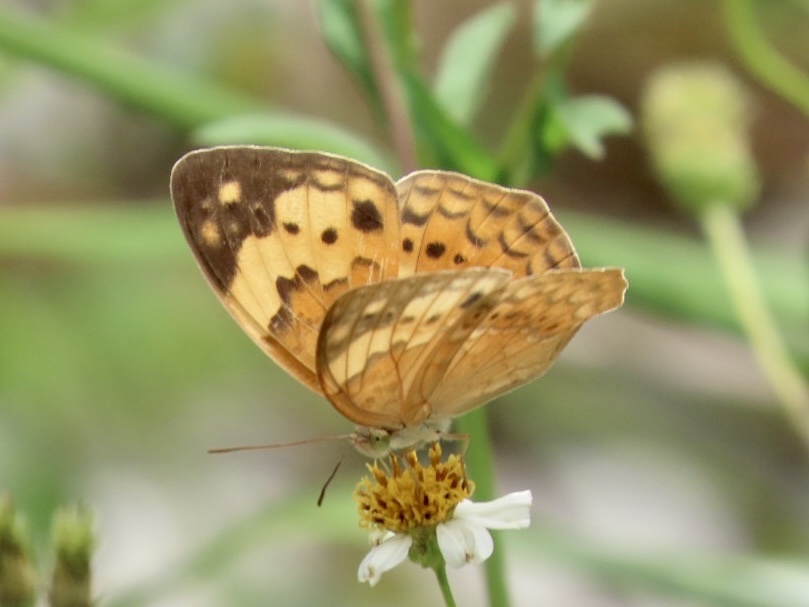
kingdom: Animalia
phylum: Arthropoda
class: Insecta
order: Lepidoptera
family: Nymphalidae
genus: Cupha
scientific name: Cupha erymanthis
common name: Rustic
